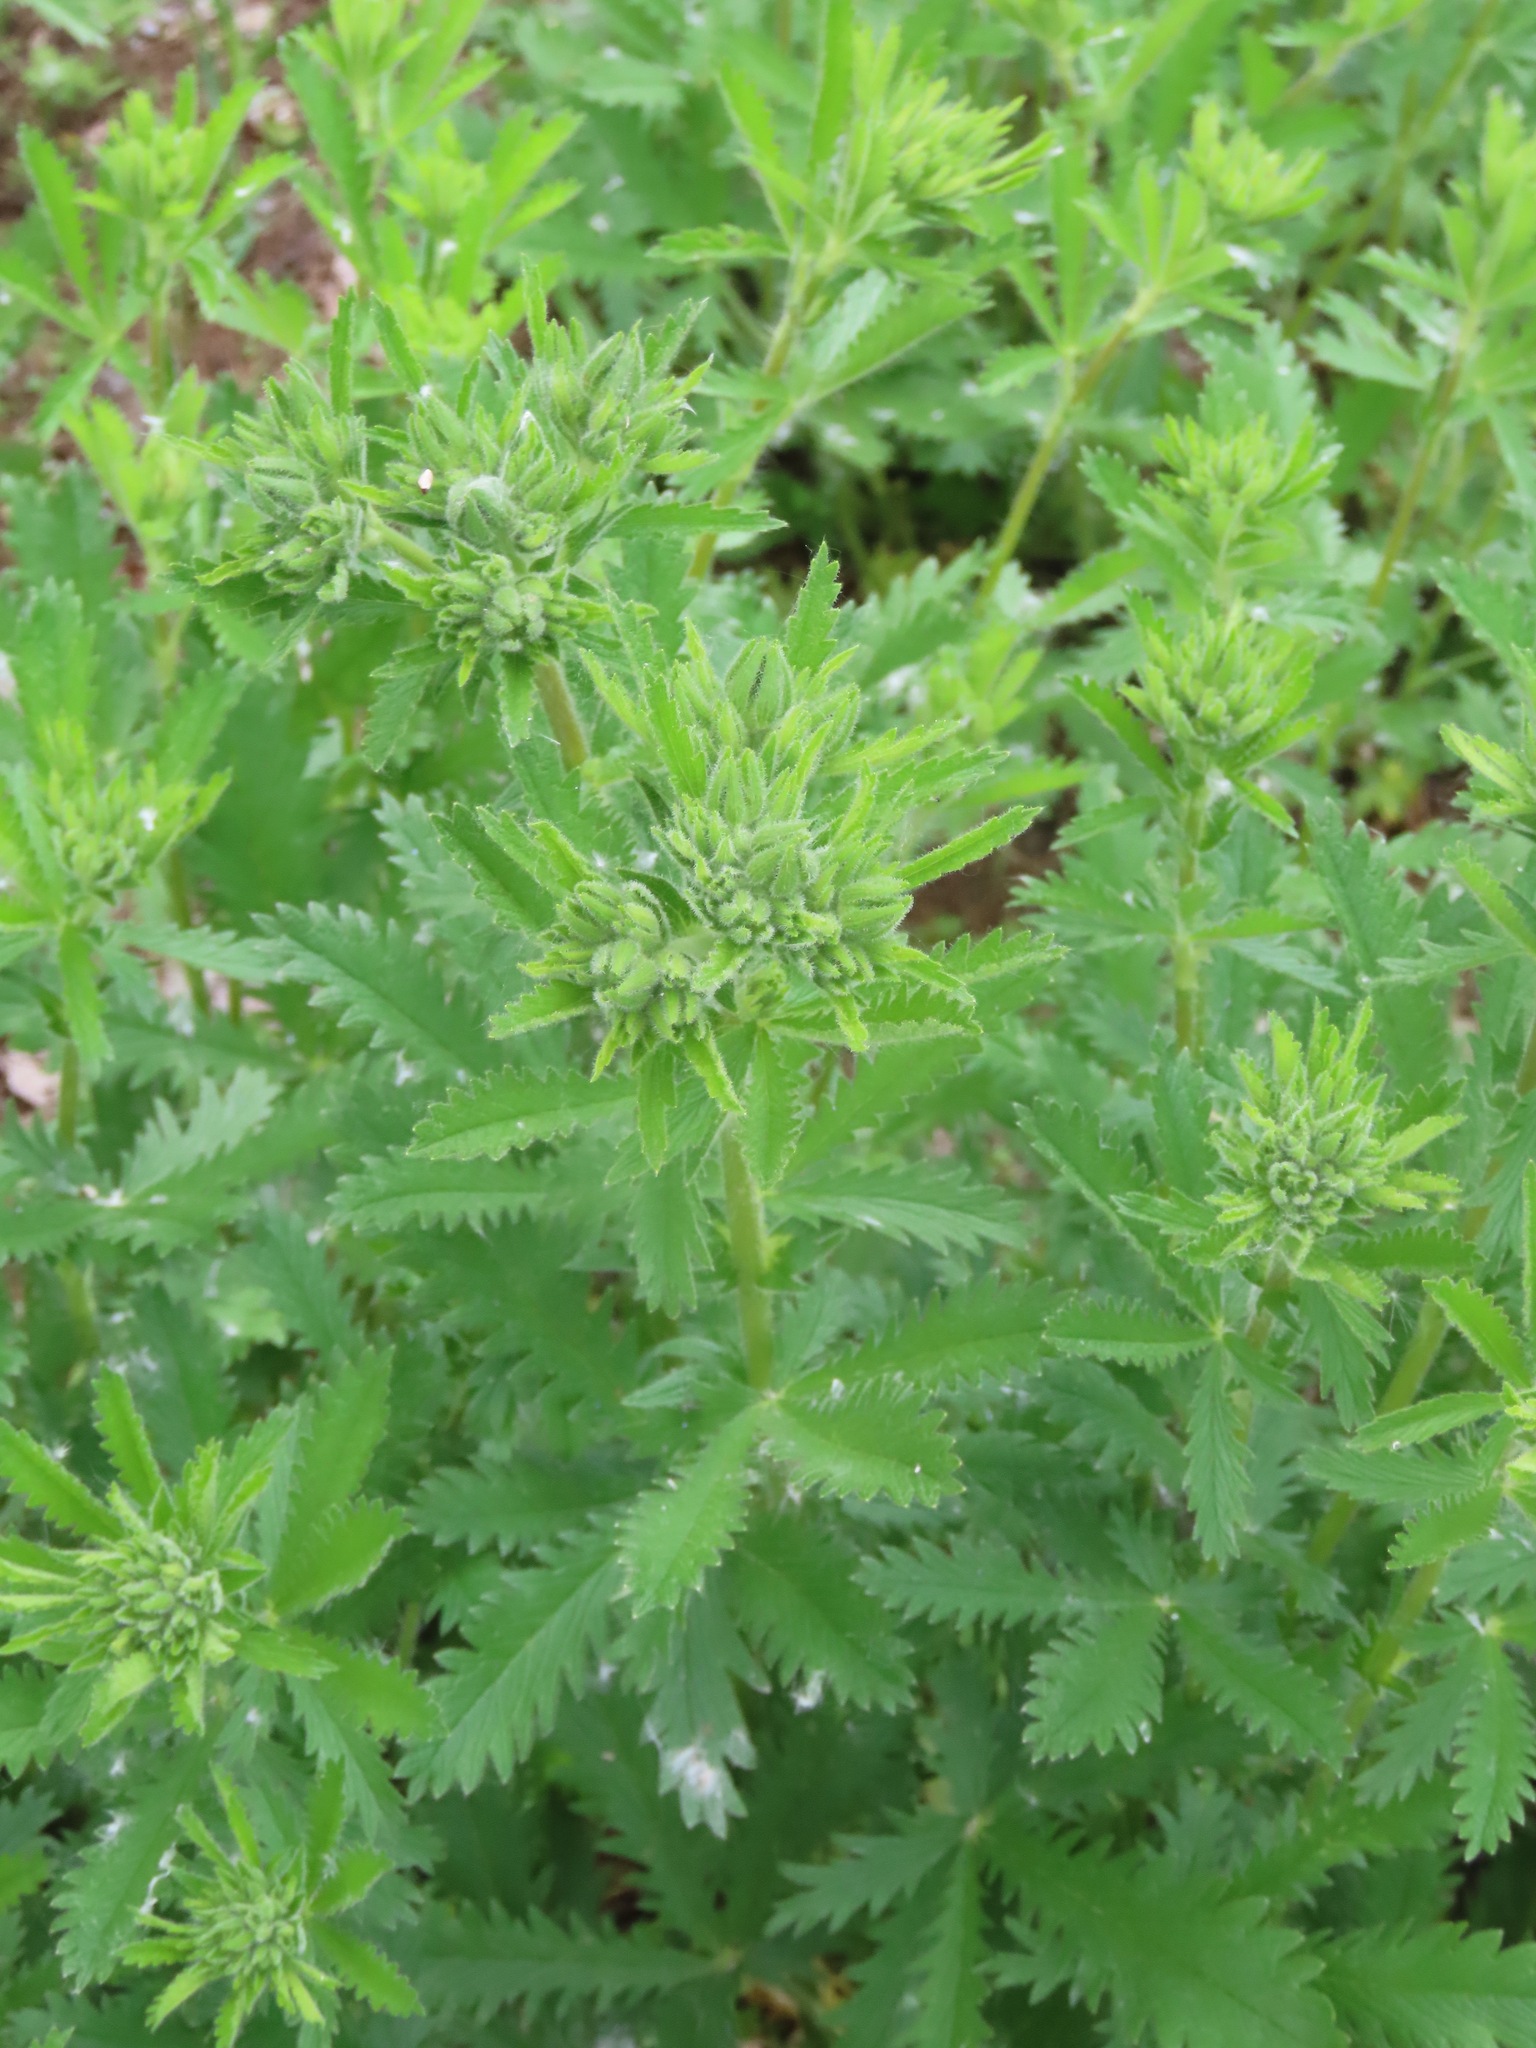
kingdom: Plantae
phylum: Tracheophyta
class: Magnoliopsida
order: Rosales
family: Rosaceae
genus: Potentilla
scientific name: Potentilla recta
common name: Sulphur cinquefoil
